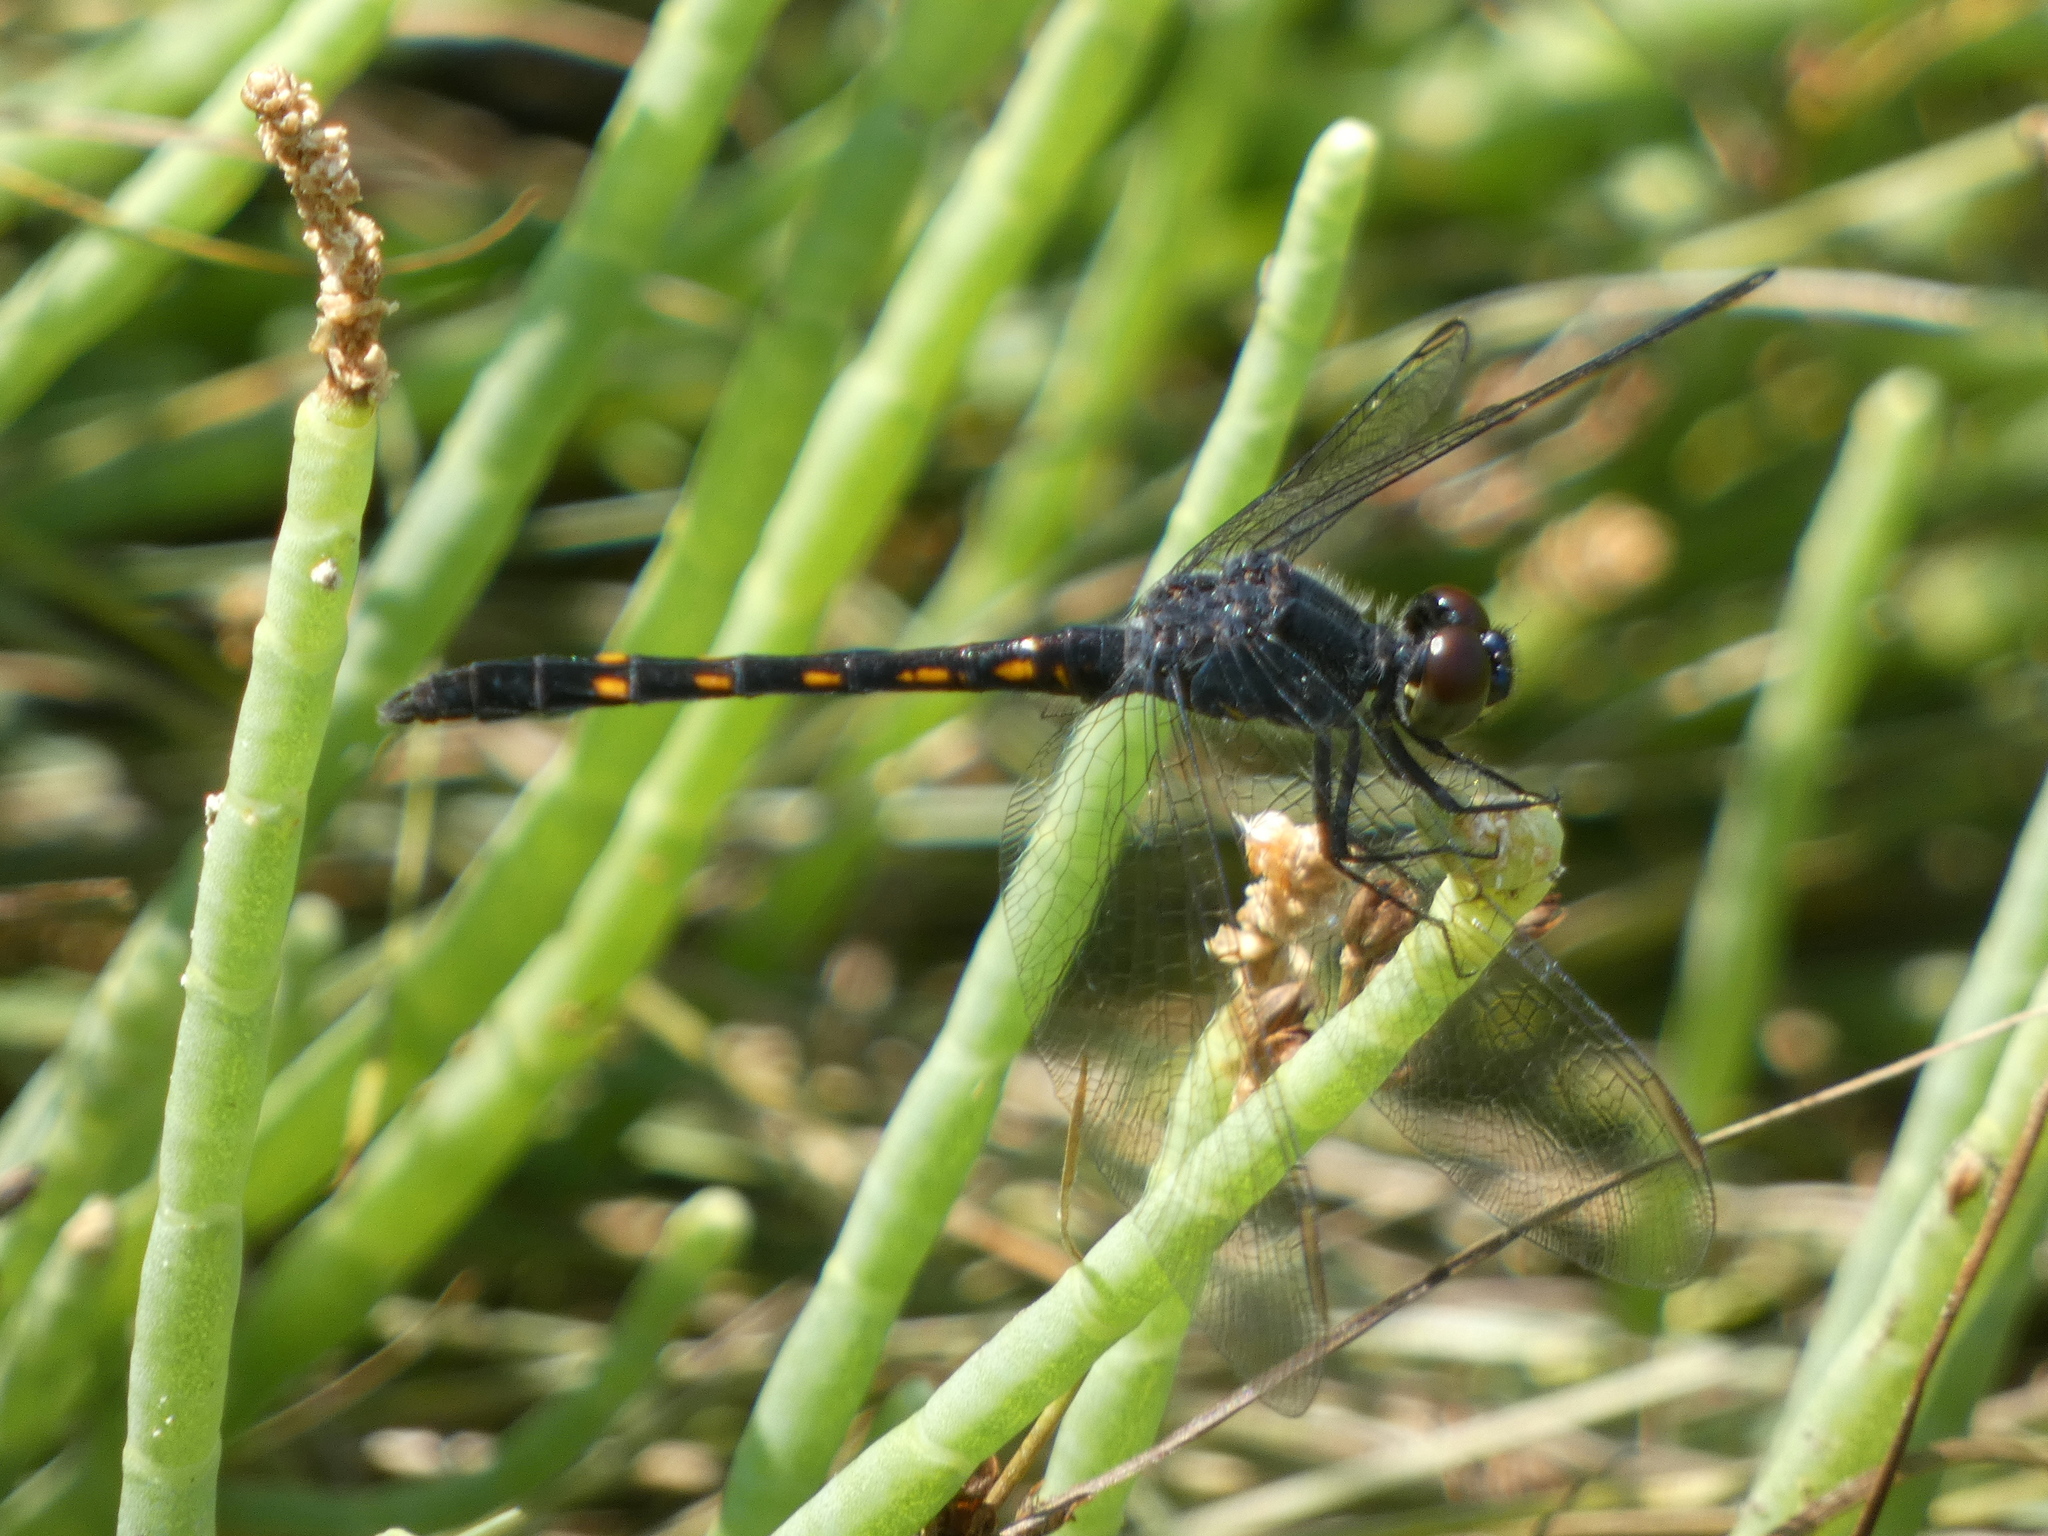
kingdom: Animalia
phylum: Arthropoda
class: Insecta
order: Odonata
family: Libellulidae
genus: Erythrodiplax
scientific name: Erythrodiplax berenice
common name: Seaside dragonlet
